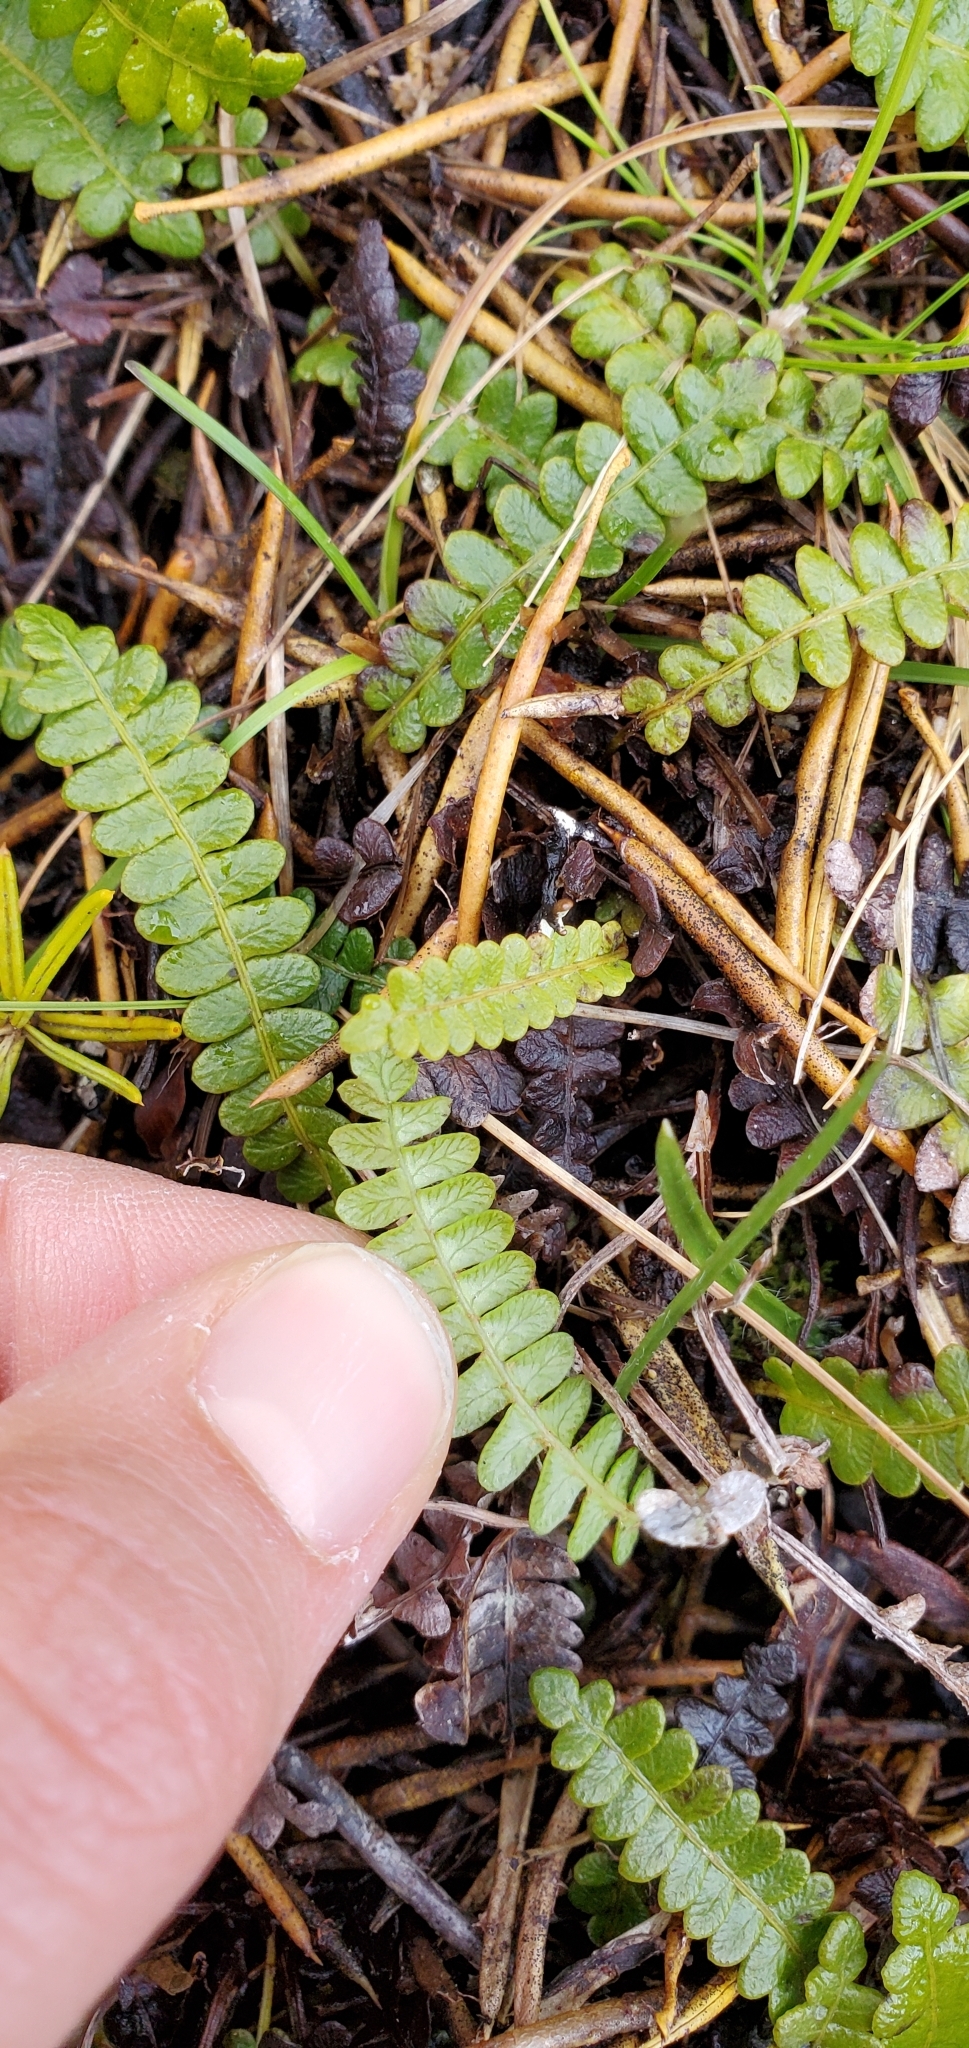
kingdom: Plantae
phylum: Tracheophyta
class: Polypodiopsida
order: Polypodiales
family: Blechnaceae
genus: Austroblechnum
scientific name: Austroblechnum penna-marina
